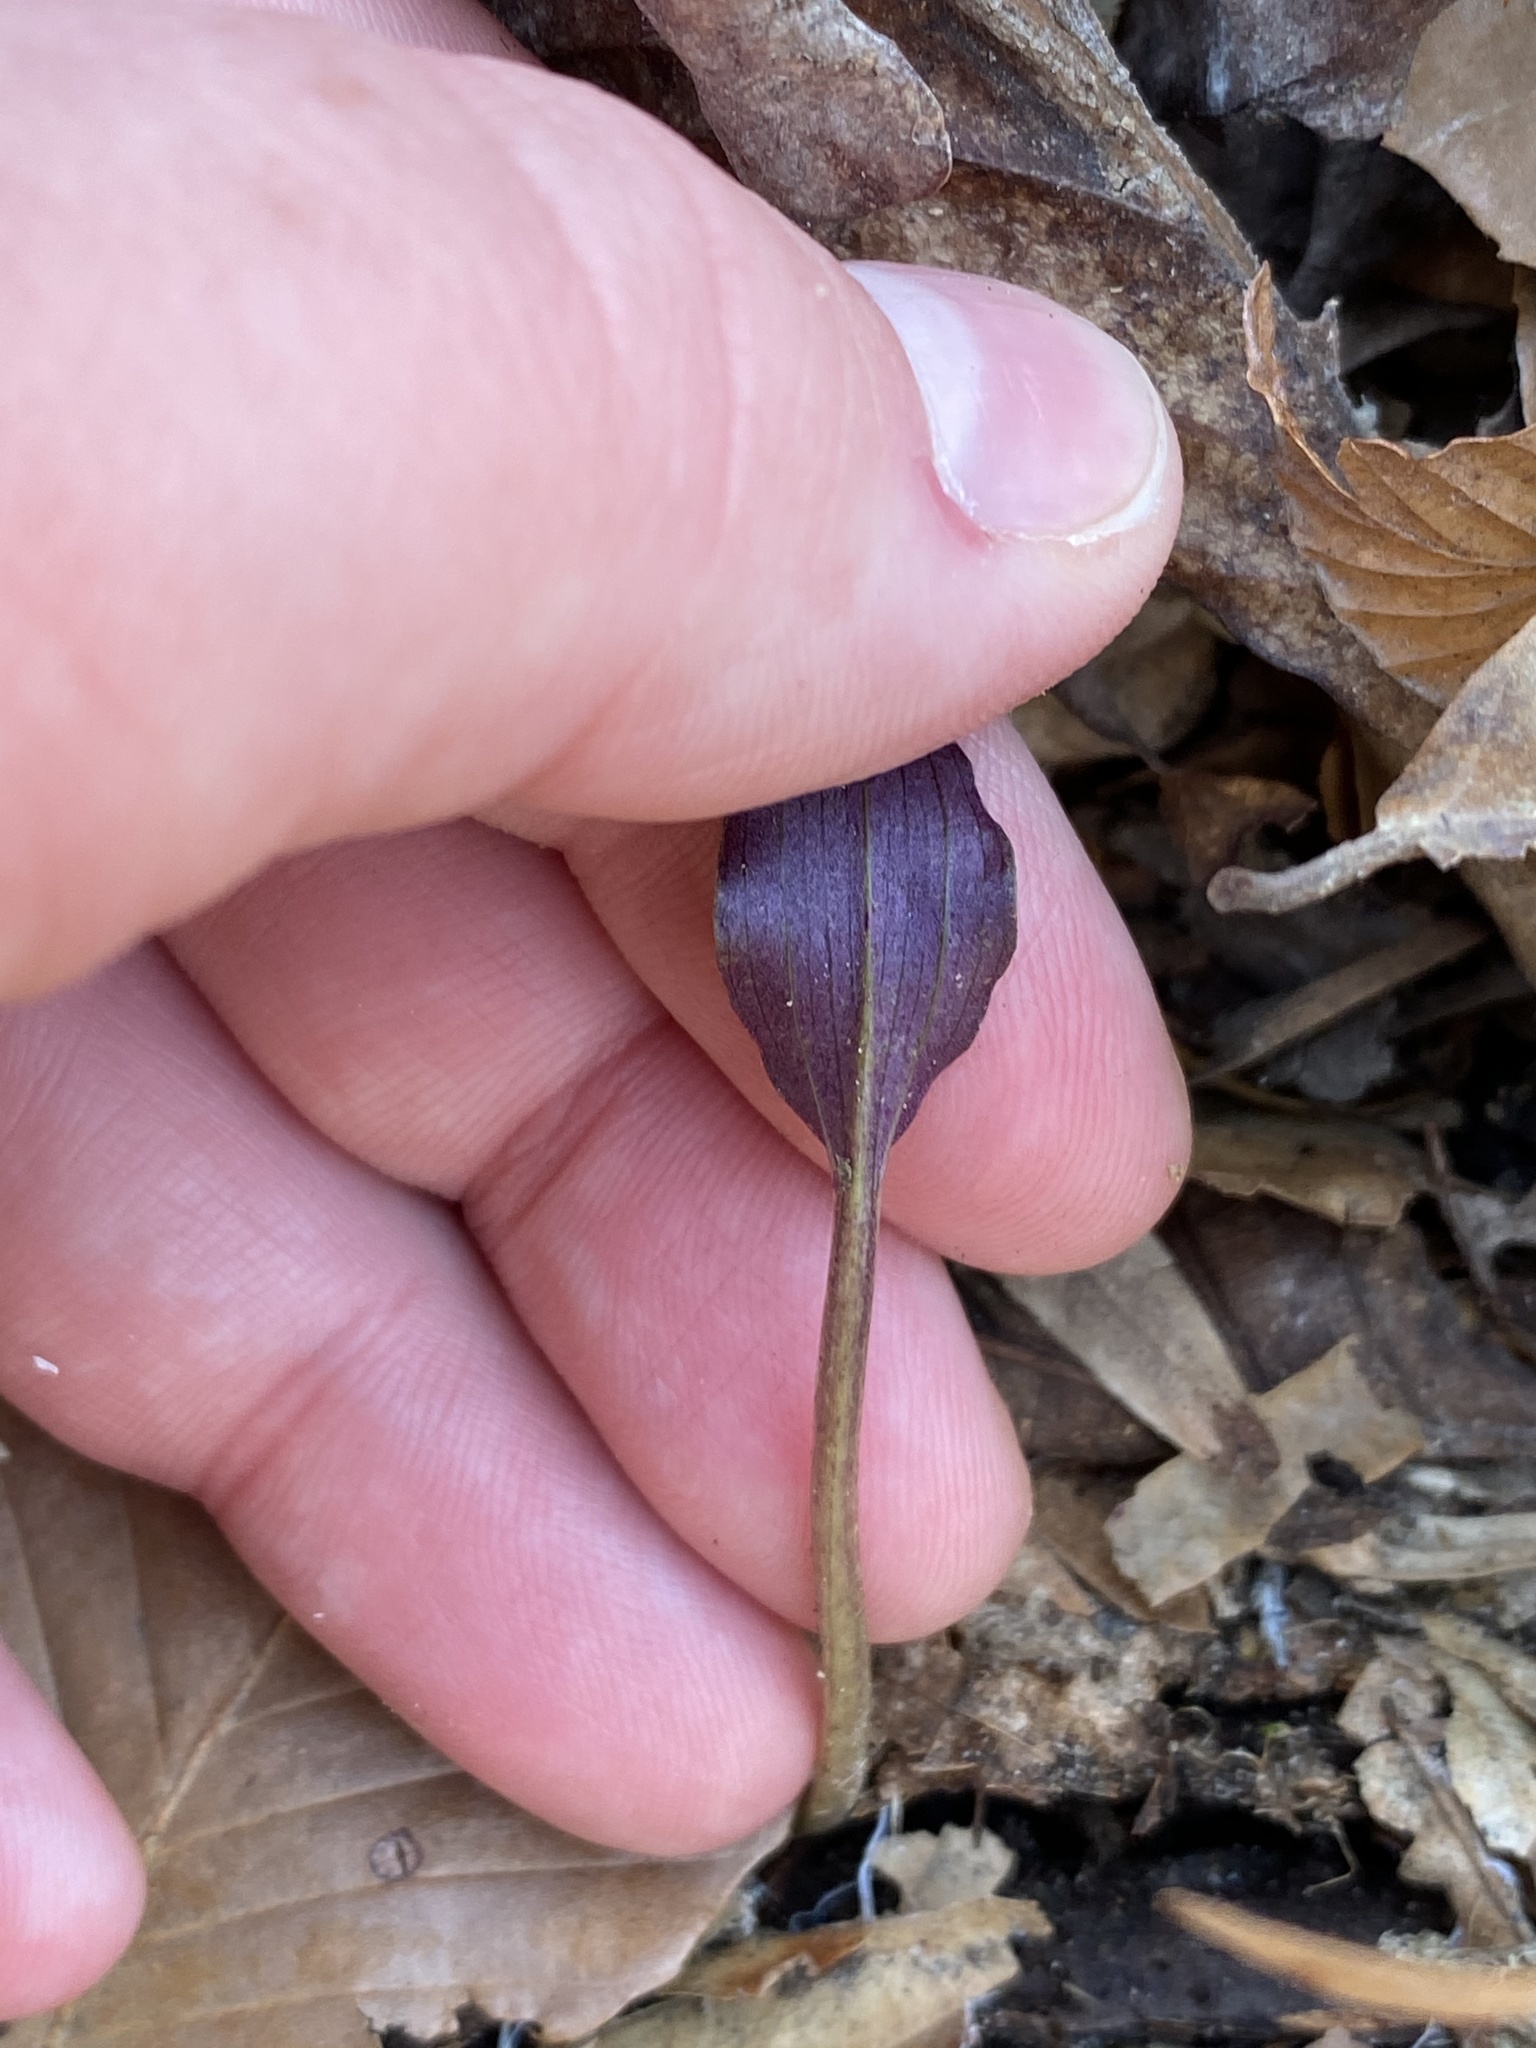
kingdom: Plantae
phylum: Tracheophyta
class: Liliopsida
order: Asparagales
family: Orchidaceae
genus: Tipularia
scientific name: Tipularia discolor
